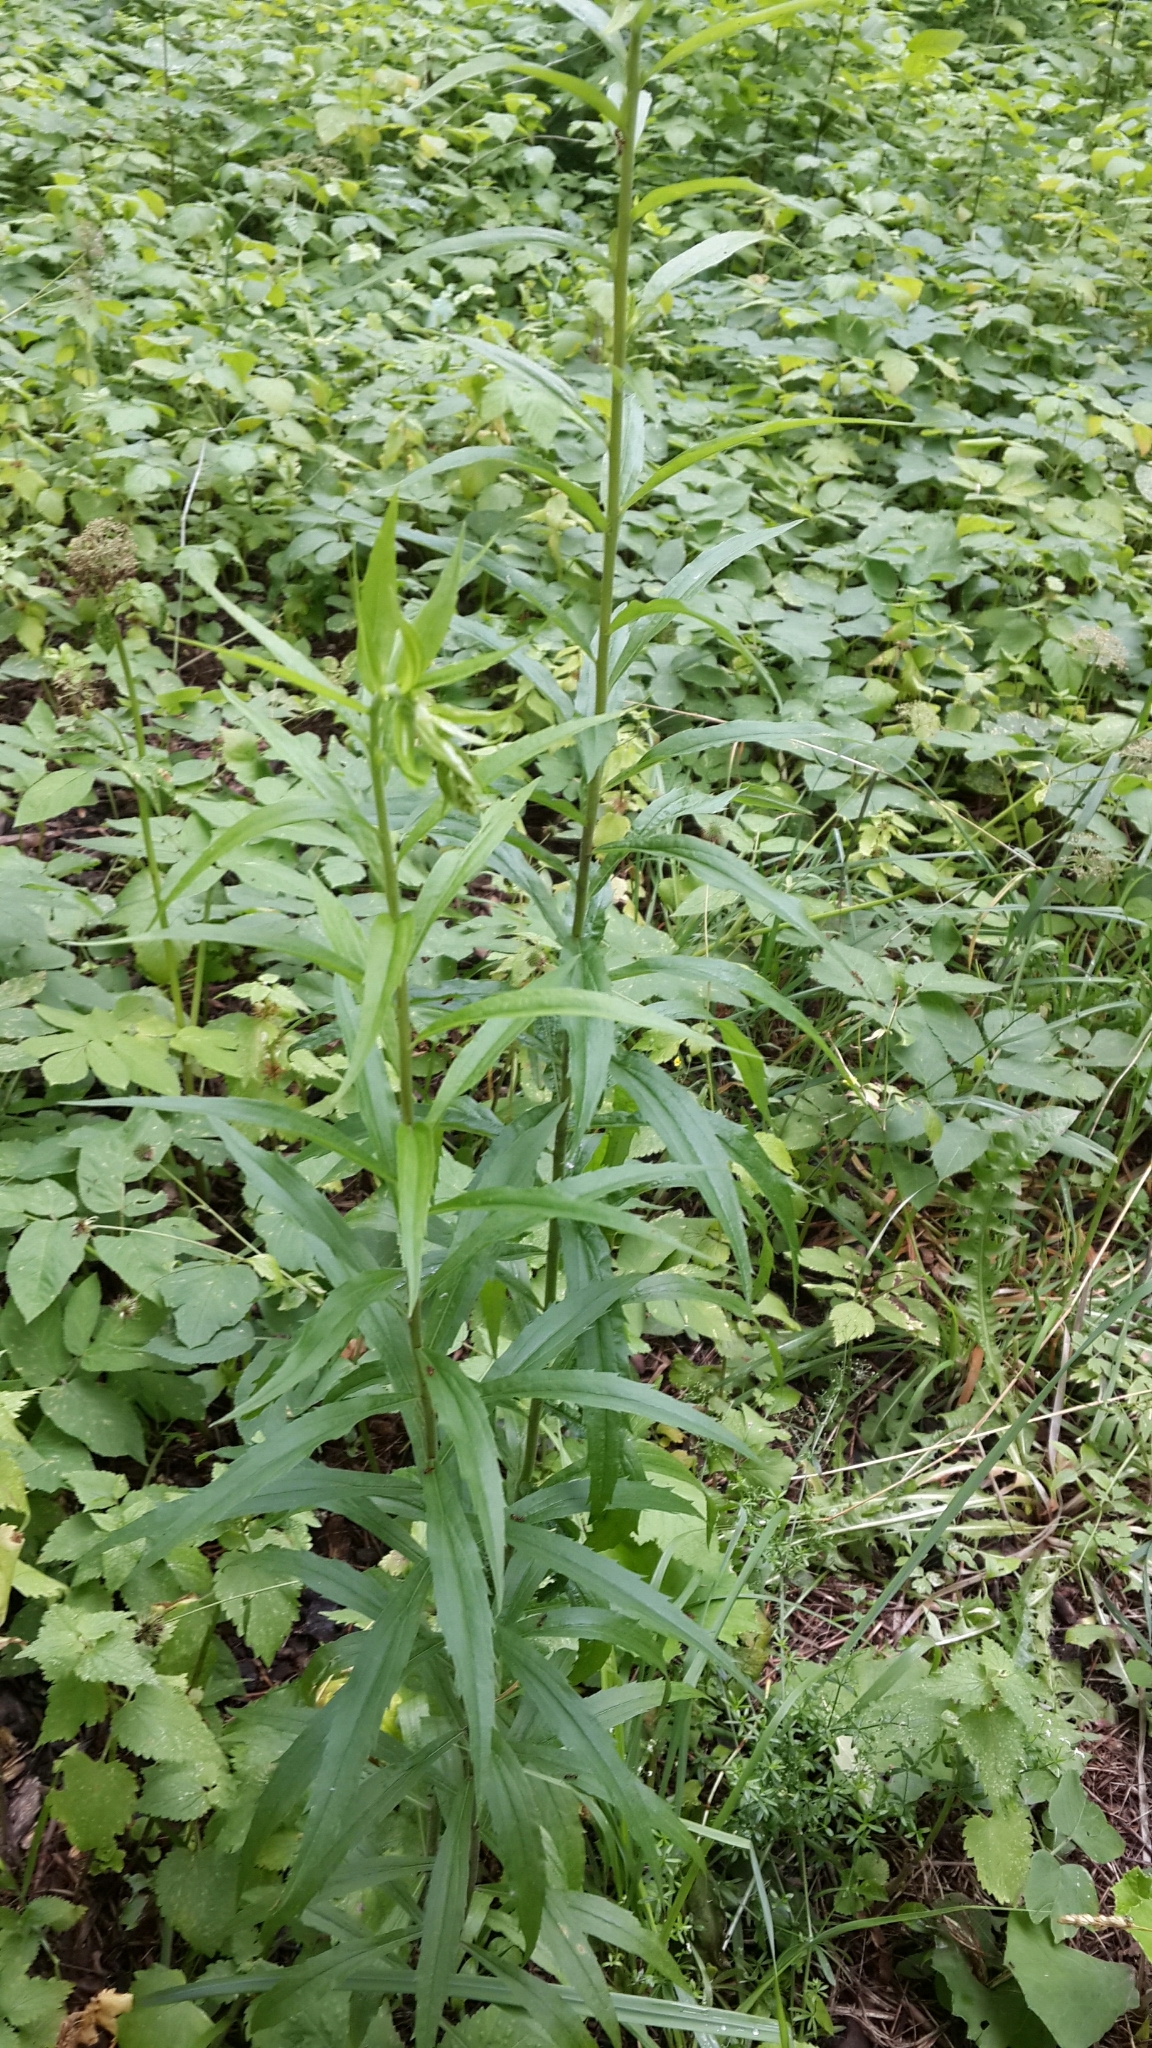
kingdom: Plantae
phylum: Tracheophyta
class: Magnoliopsida
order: Asterales
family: Asteraceae
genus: Solidago
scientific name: Solidago canadensis
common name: Canada goldenrod
